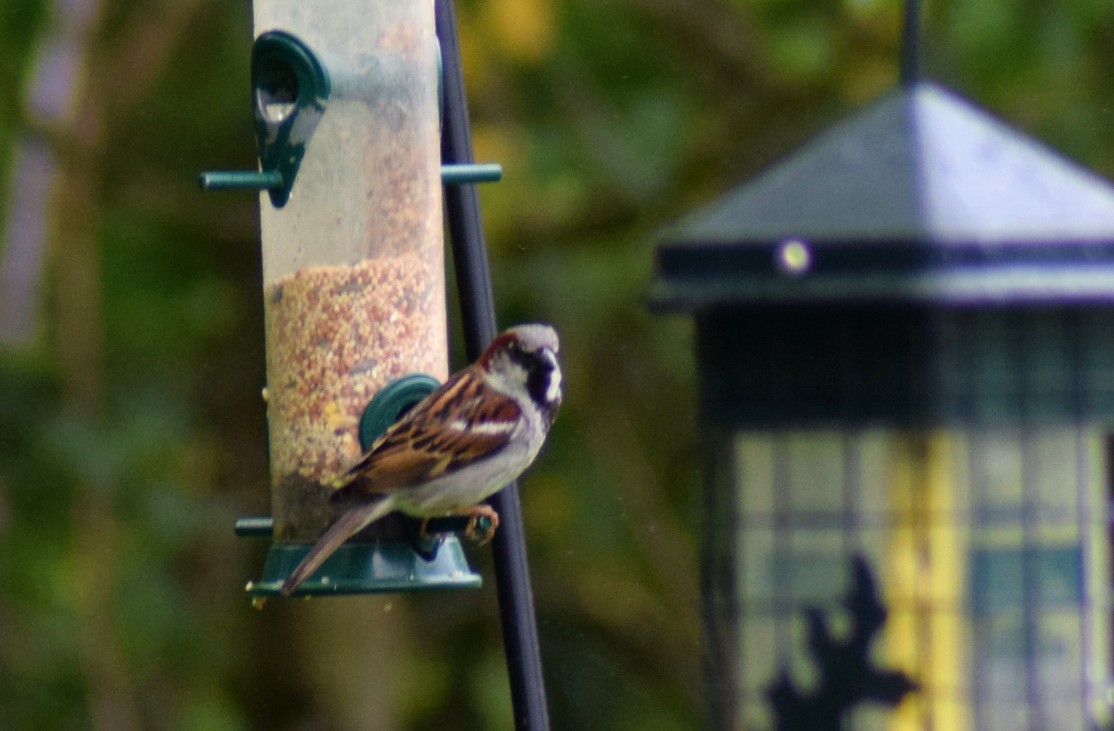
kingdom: Animalia
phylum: Chordata
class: Aves
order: Passeriformes
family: Passeridae
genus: Passer
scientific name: Passer domesticus
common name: House sparrow
